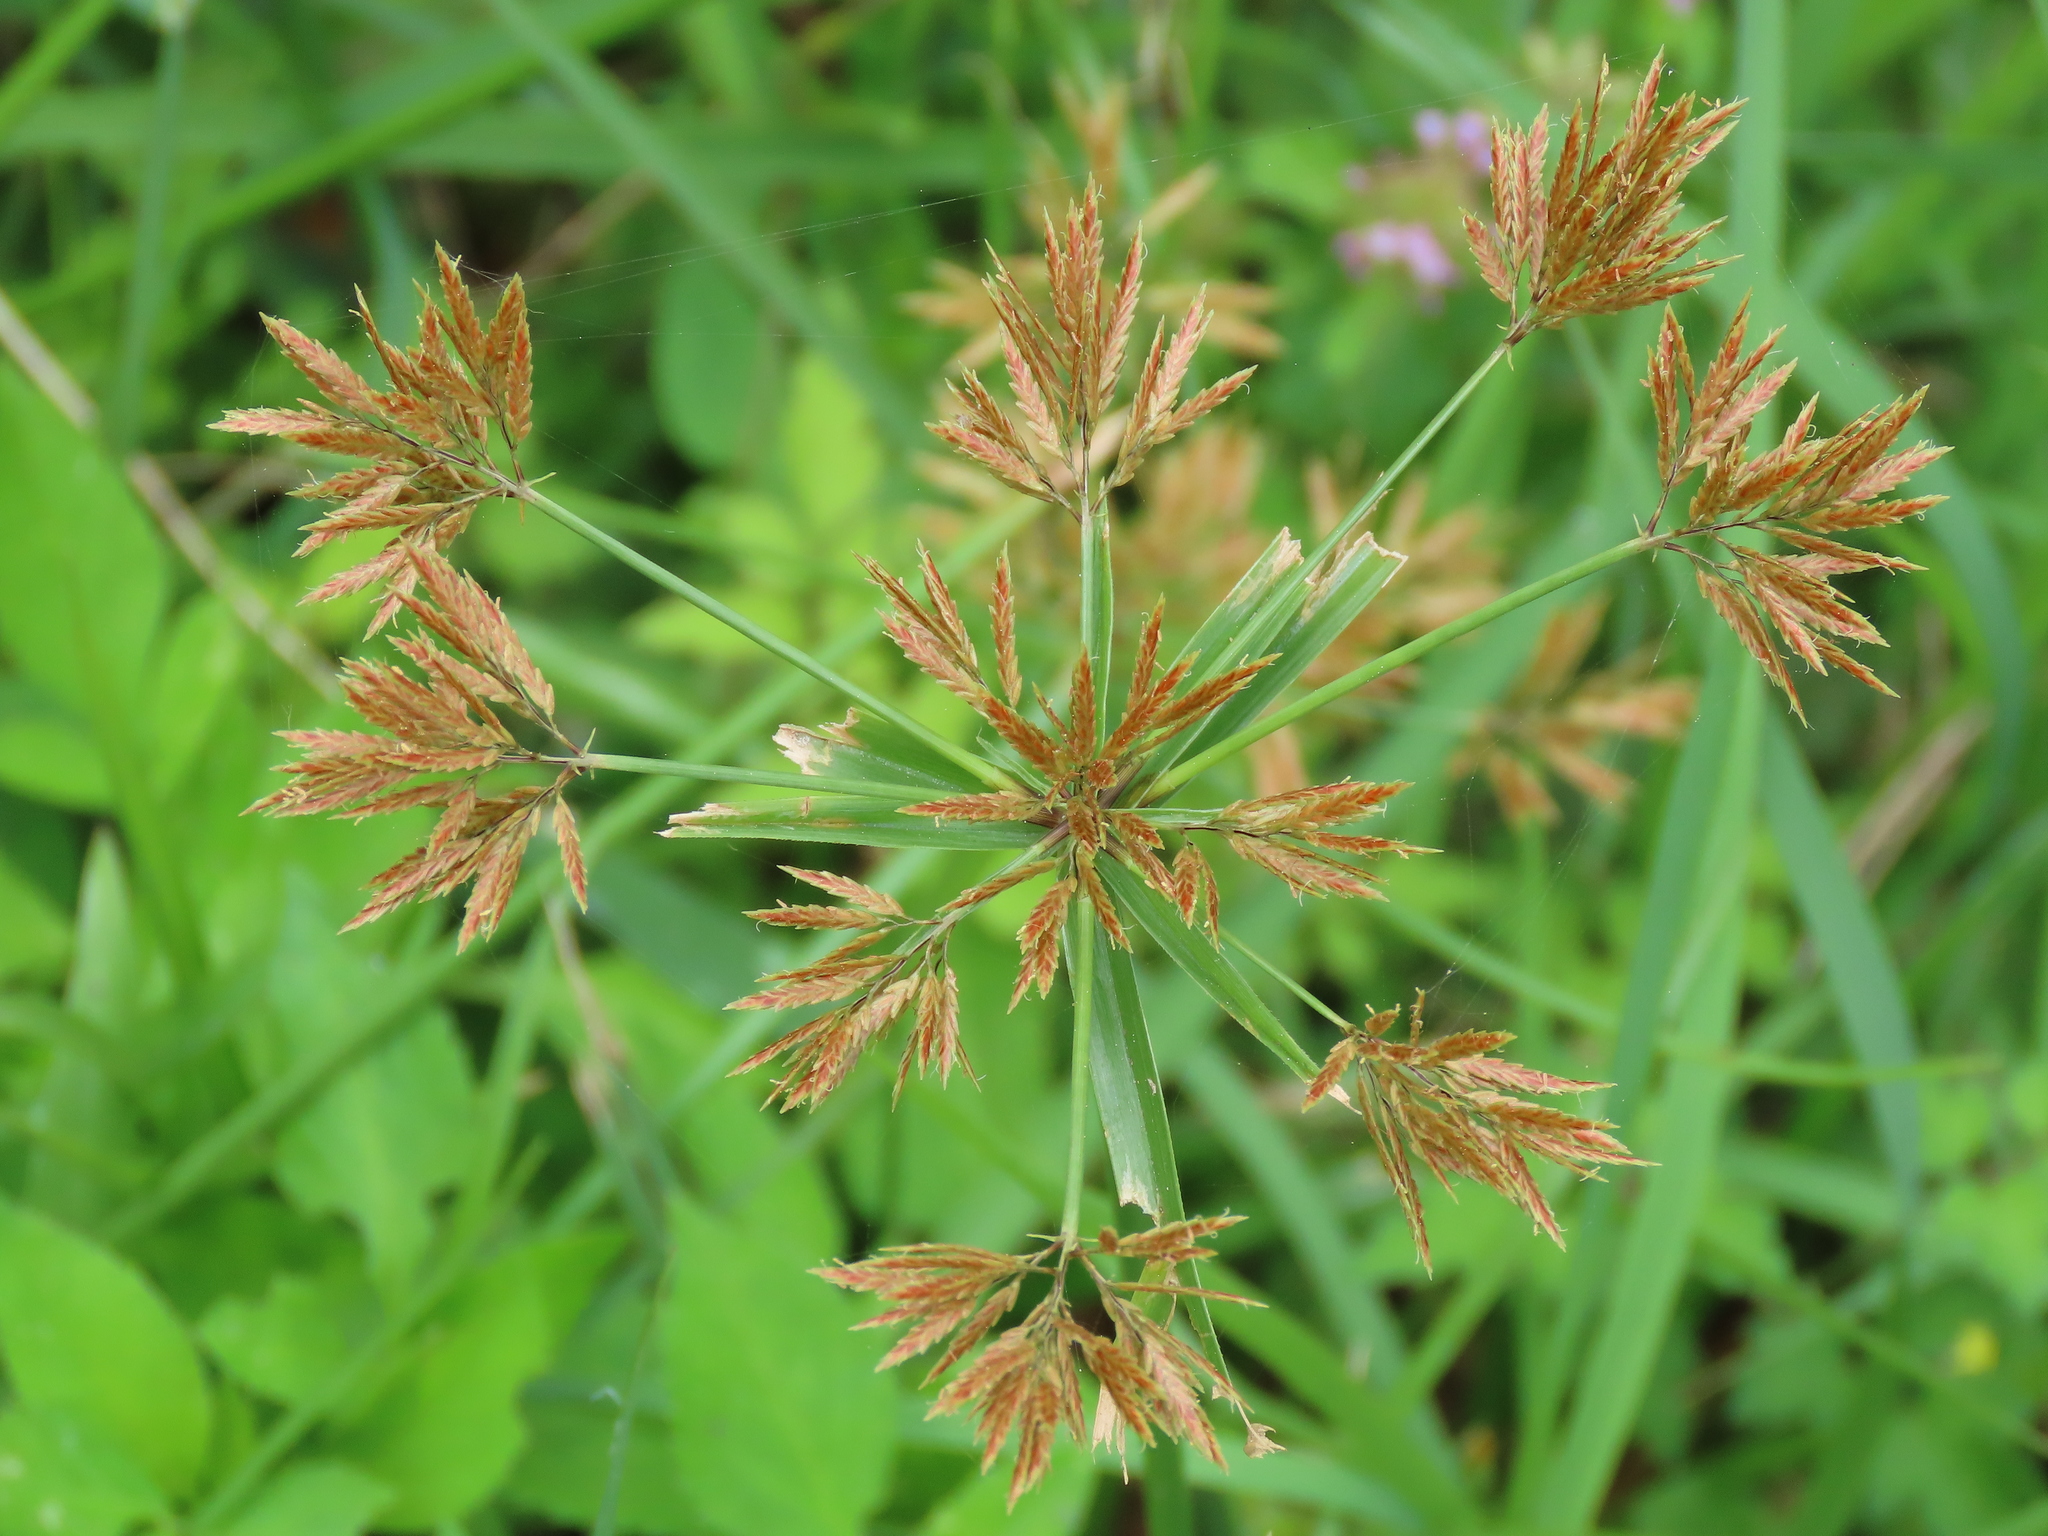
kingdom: Plantae
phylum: Tracheophyta
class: Liliopsida
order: Poales
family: Cyperaceae
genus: Cyperus
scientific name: Cyperus polystachyos
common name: Bunchy flat sedge
